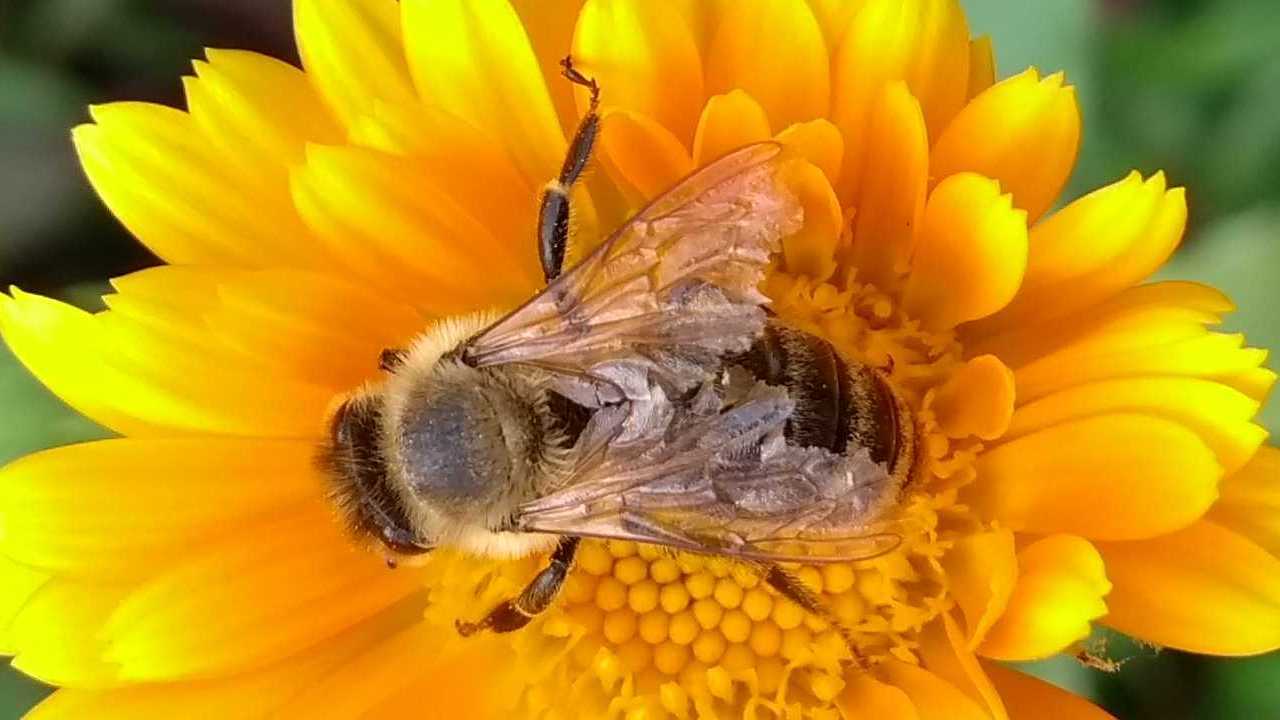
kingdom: Animalia
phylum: Arthropoda
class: Insecta
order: Hymenoptera
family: Apidae
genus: Apis
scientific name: Apis mellifera
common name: Honey bee
